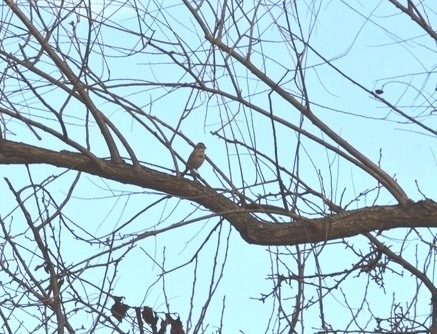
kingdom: Animalia
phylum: Chordata
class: Aves
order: Passeriformes
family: Passerellidae
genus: Spizelloides
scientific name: Spizelloides arborea
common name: American tree sparrow
